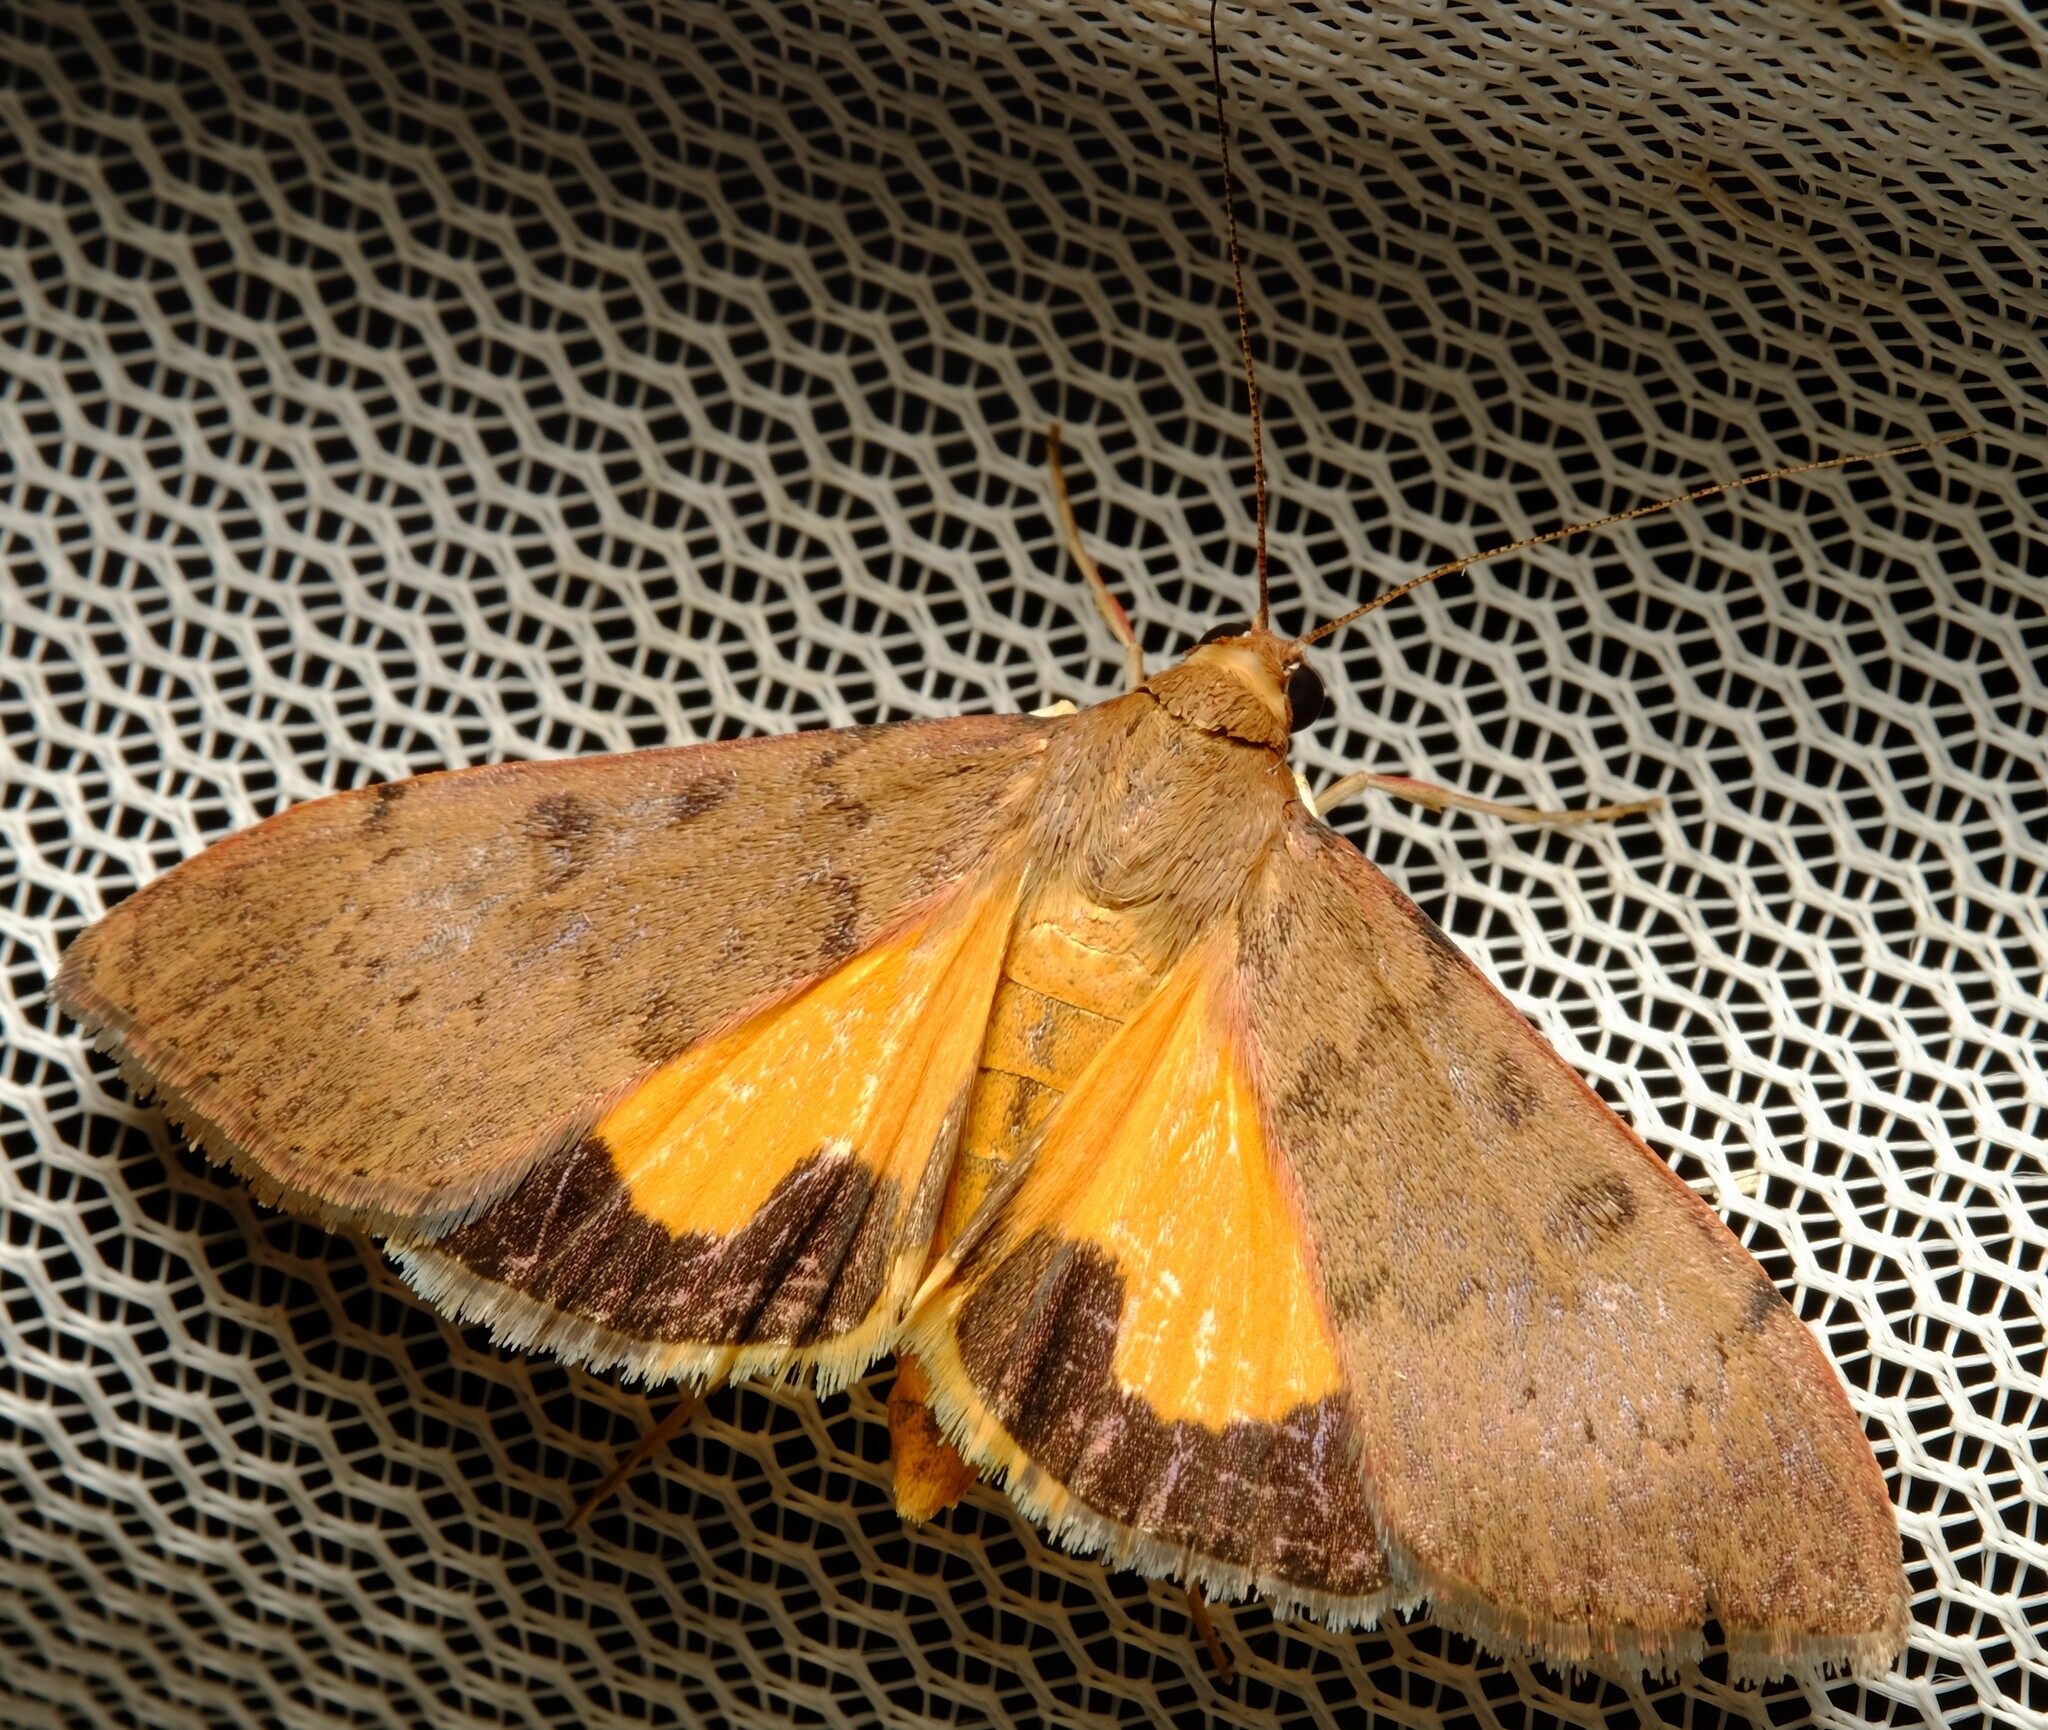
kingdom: Animalia
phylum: Arthropoda
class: Insecta
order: Lepidoptera
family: Crambidae
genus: Uresiphita
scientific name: Uresiphita ornithopteralis
